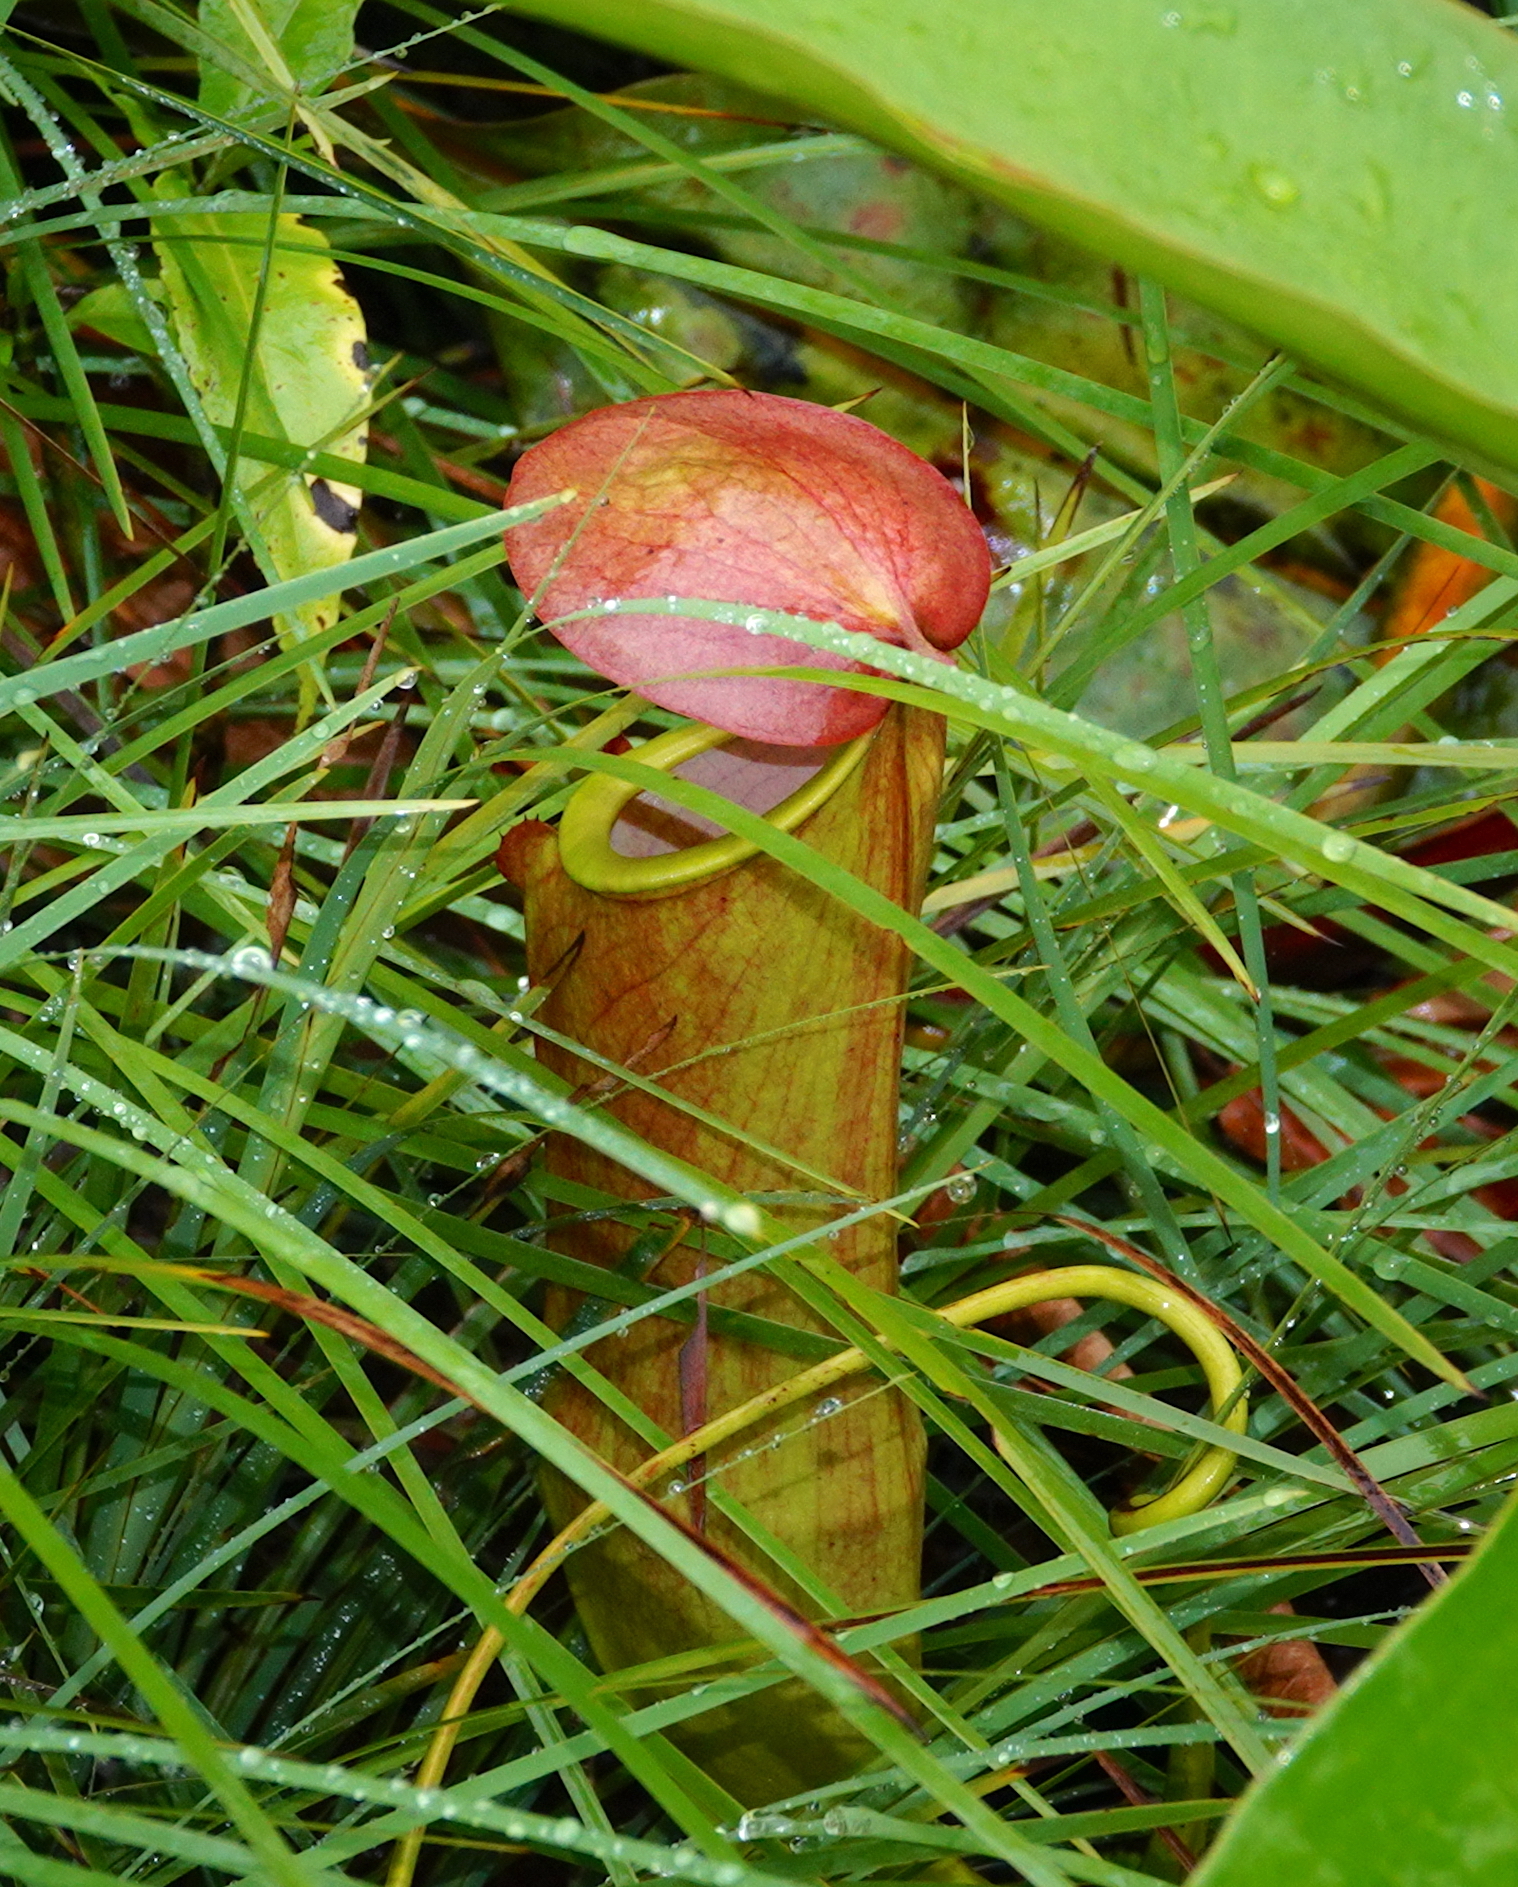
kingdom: Plantae
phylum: Tracheophyta
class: Magnoliopsida
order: Caryophyllales
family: Nepenthaceae
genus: Nepenthes
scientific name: Nepenthes mirabilis
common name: Tropical pitcherplant
